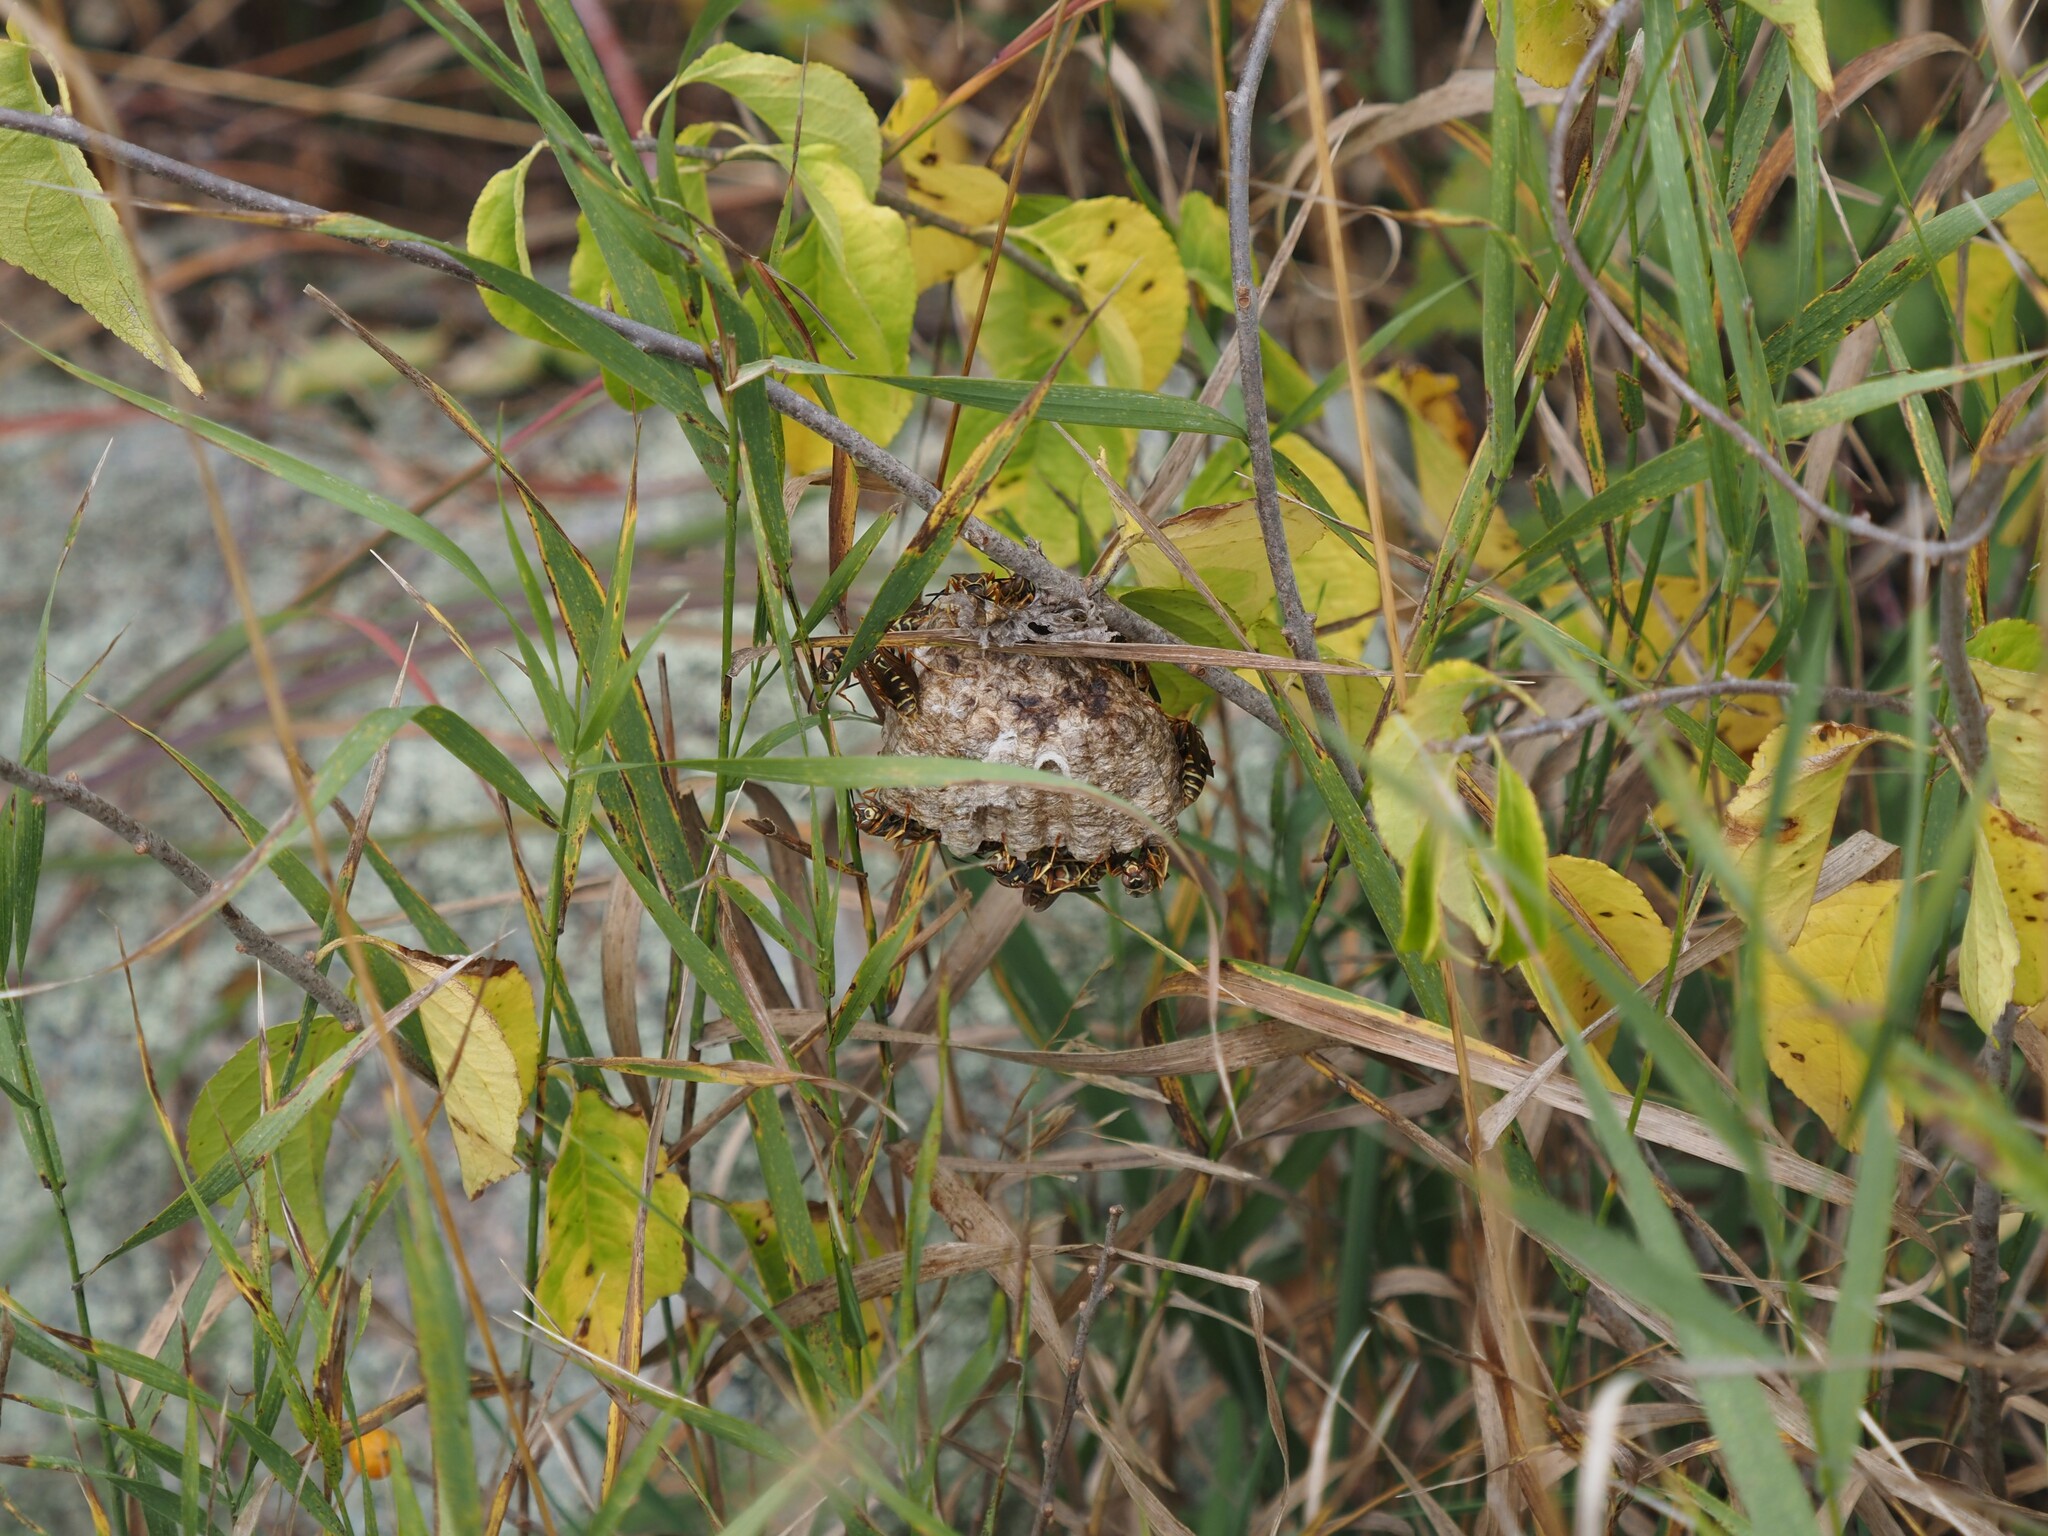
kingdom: Animalia
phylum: Arthropoda
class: Insecta
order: Hymenoptera
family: Eumenidae
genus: Polistes
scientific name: Polistes fuscatus
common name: Dark paper wasp
